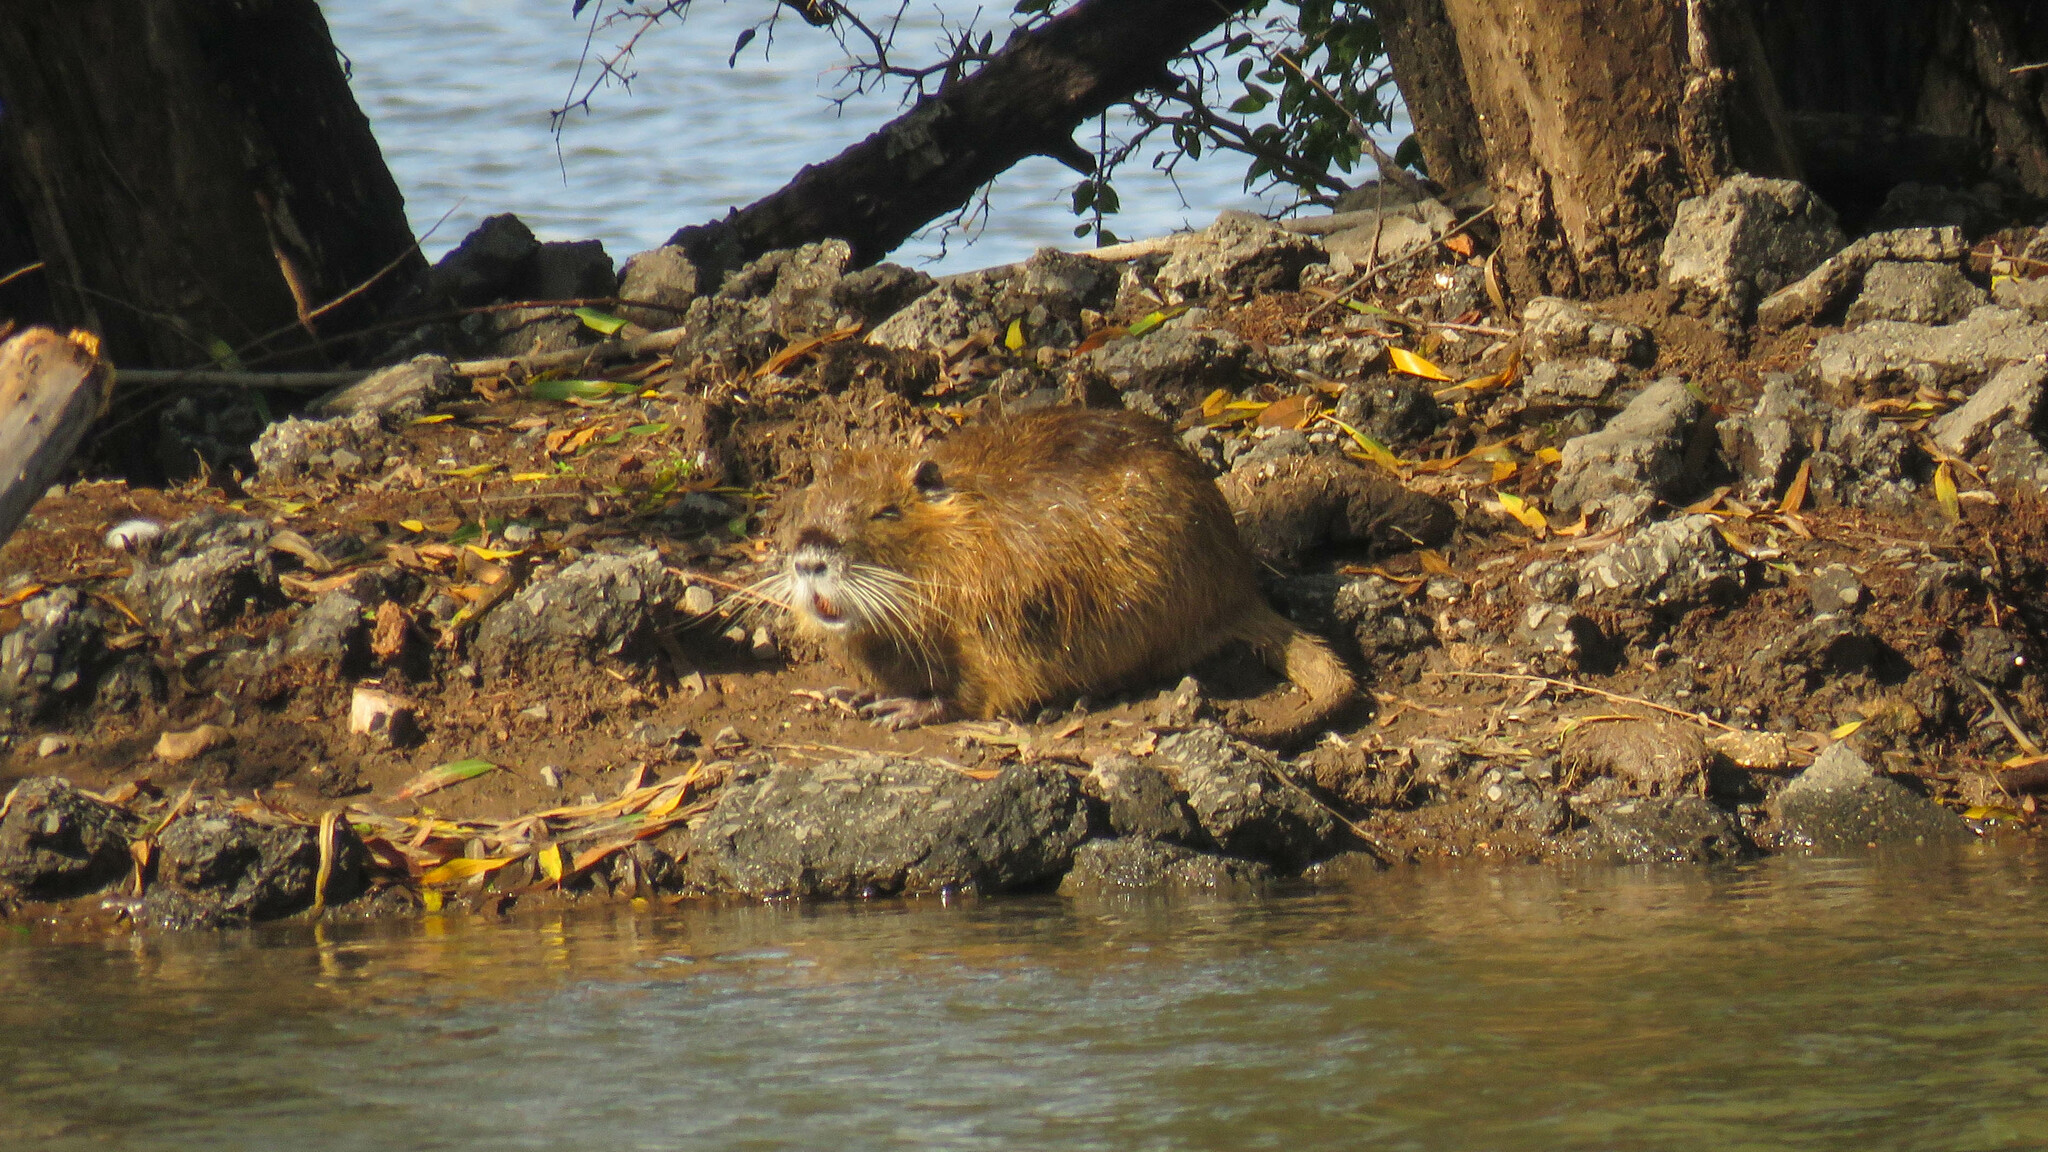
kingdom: Animalia
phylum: Chordata
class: Mammalia
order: Rodentia
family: Myocastoridae
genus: Myocastor
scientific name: Myocastor coypus
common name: Coypu
